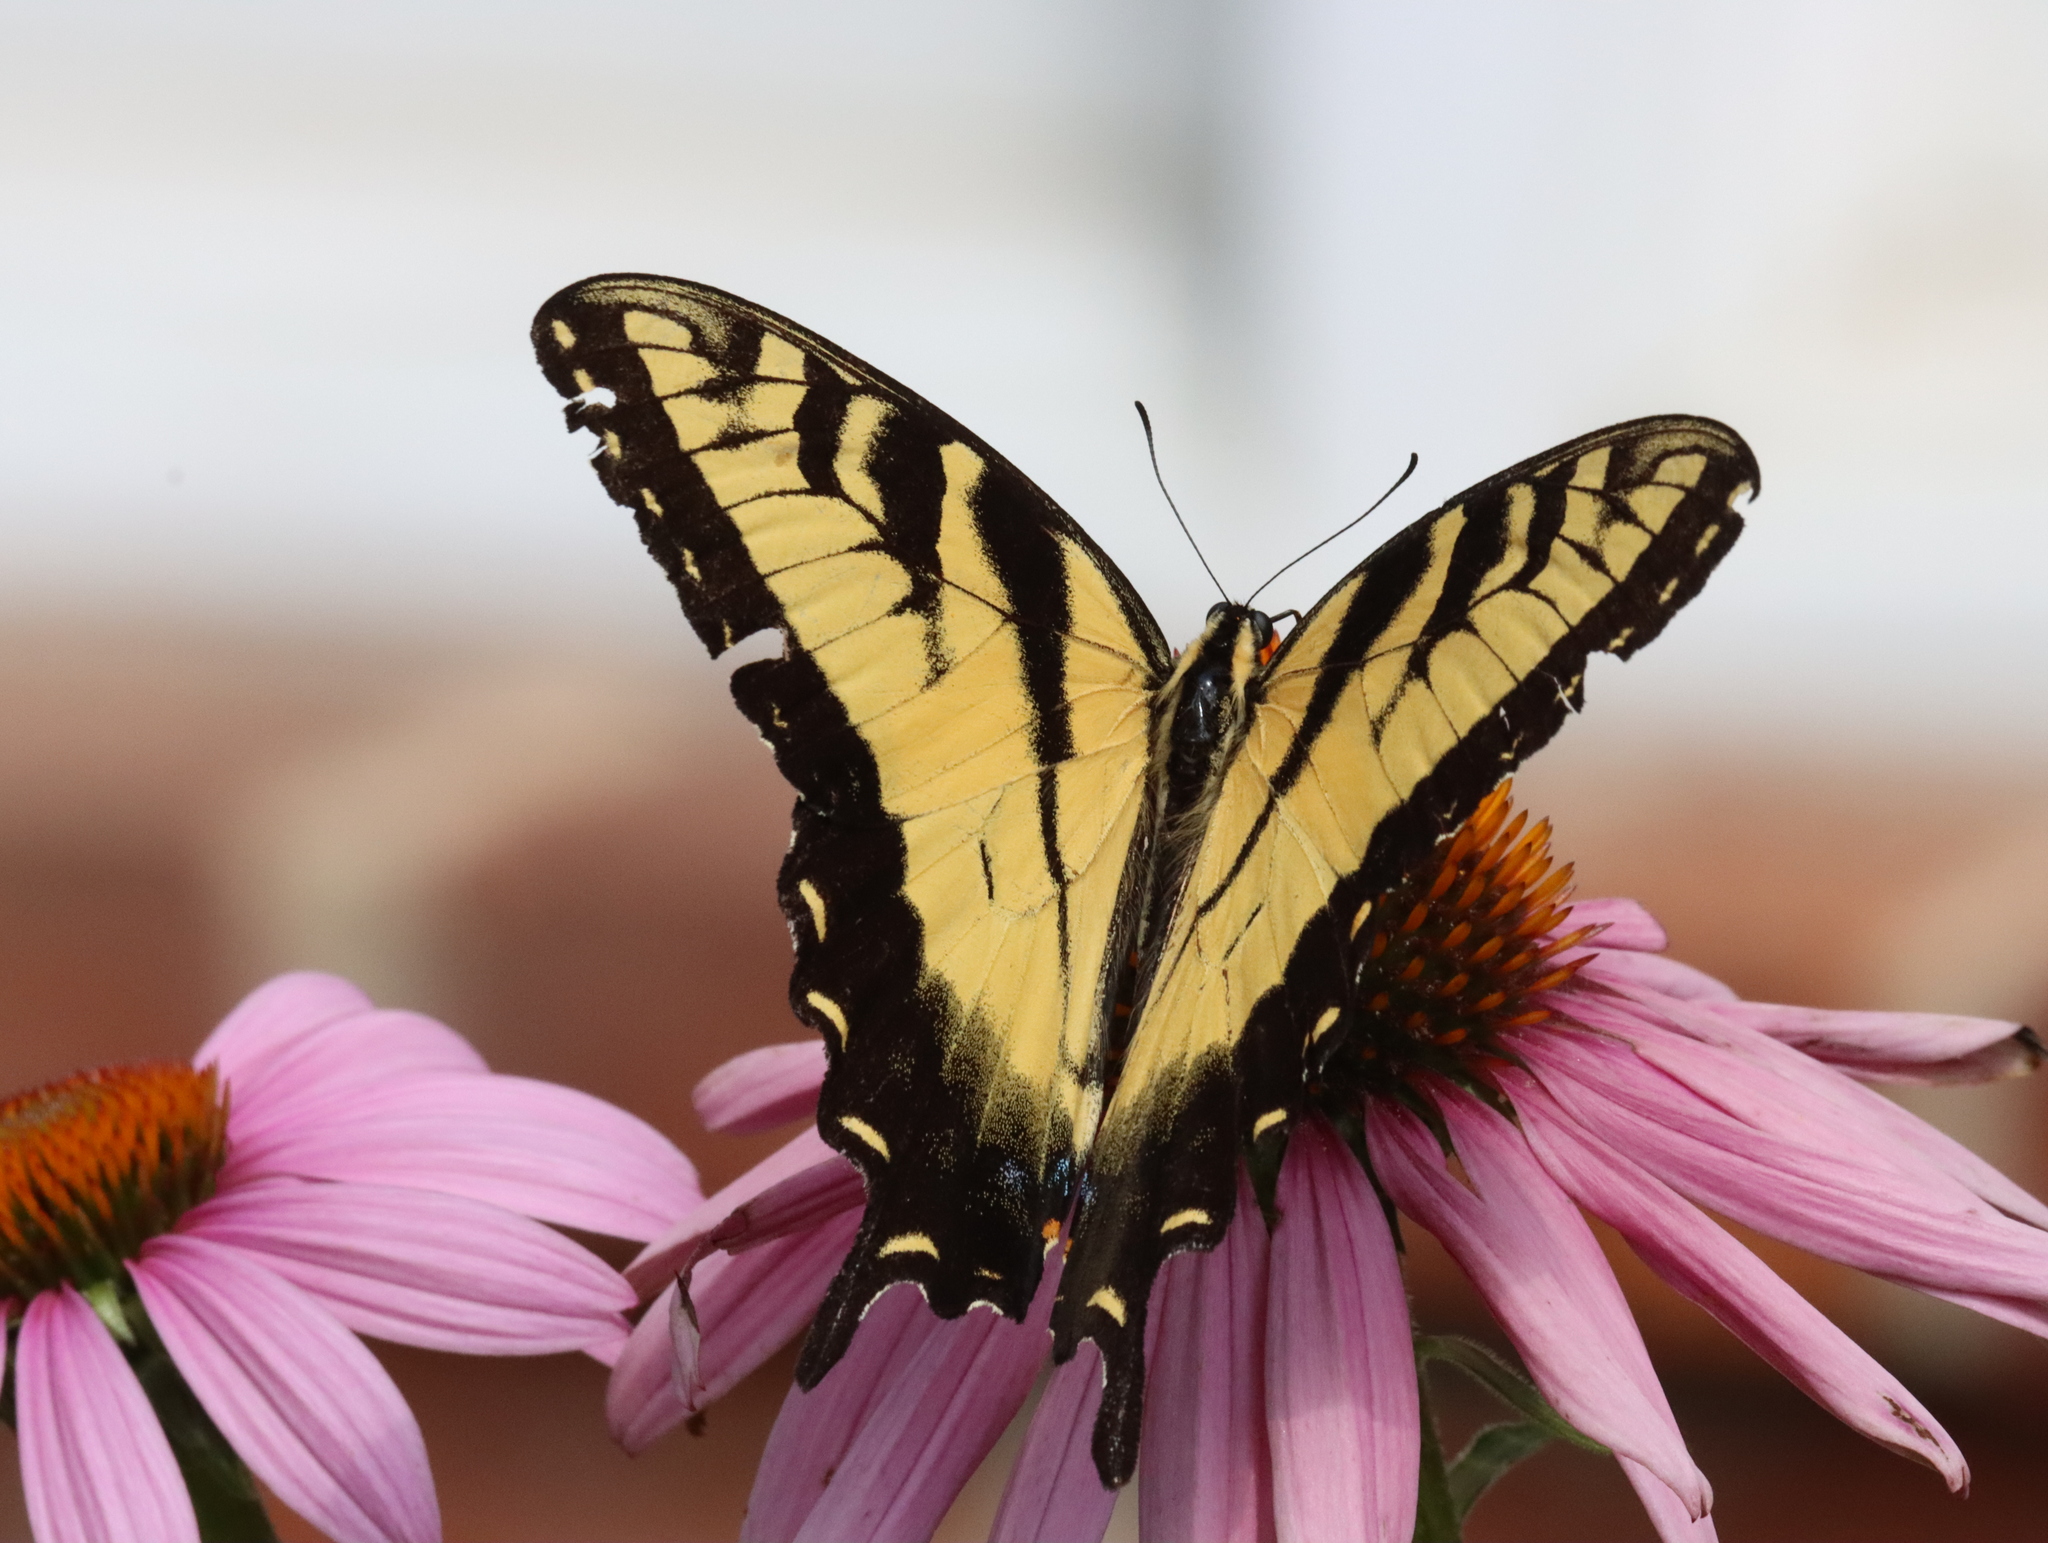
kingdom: Animalia
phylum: Arthropoda
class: Insecta
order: Lepidoptera
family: Papilionidae
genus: Papilio
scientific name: Papilio glaucus
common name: Tiger swallowtail
